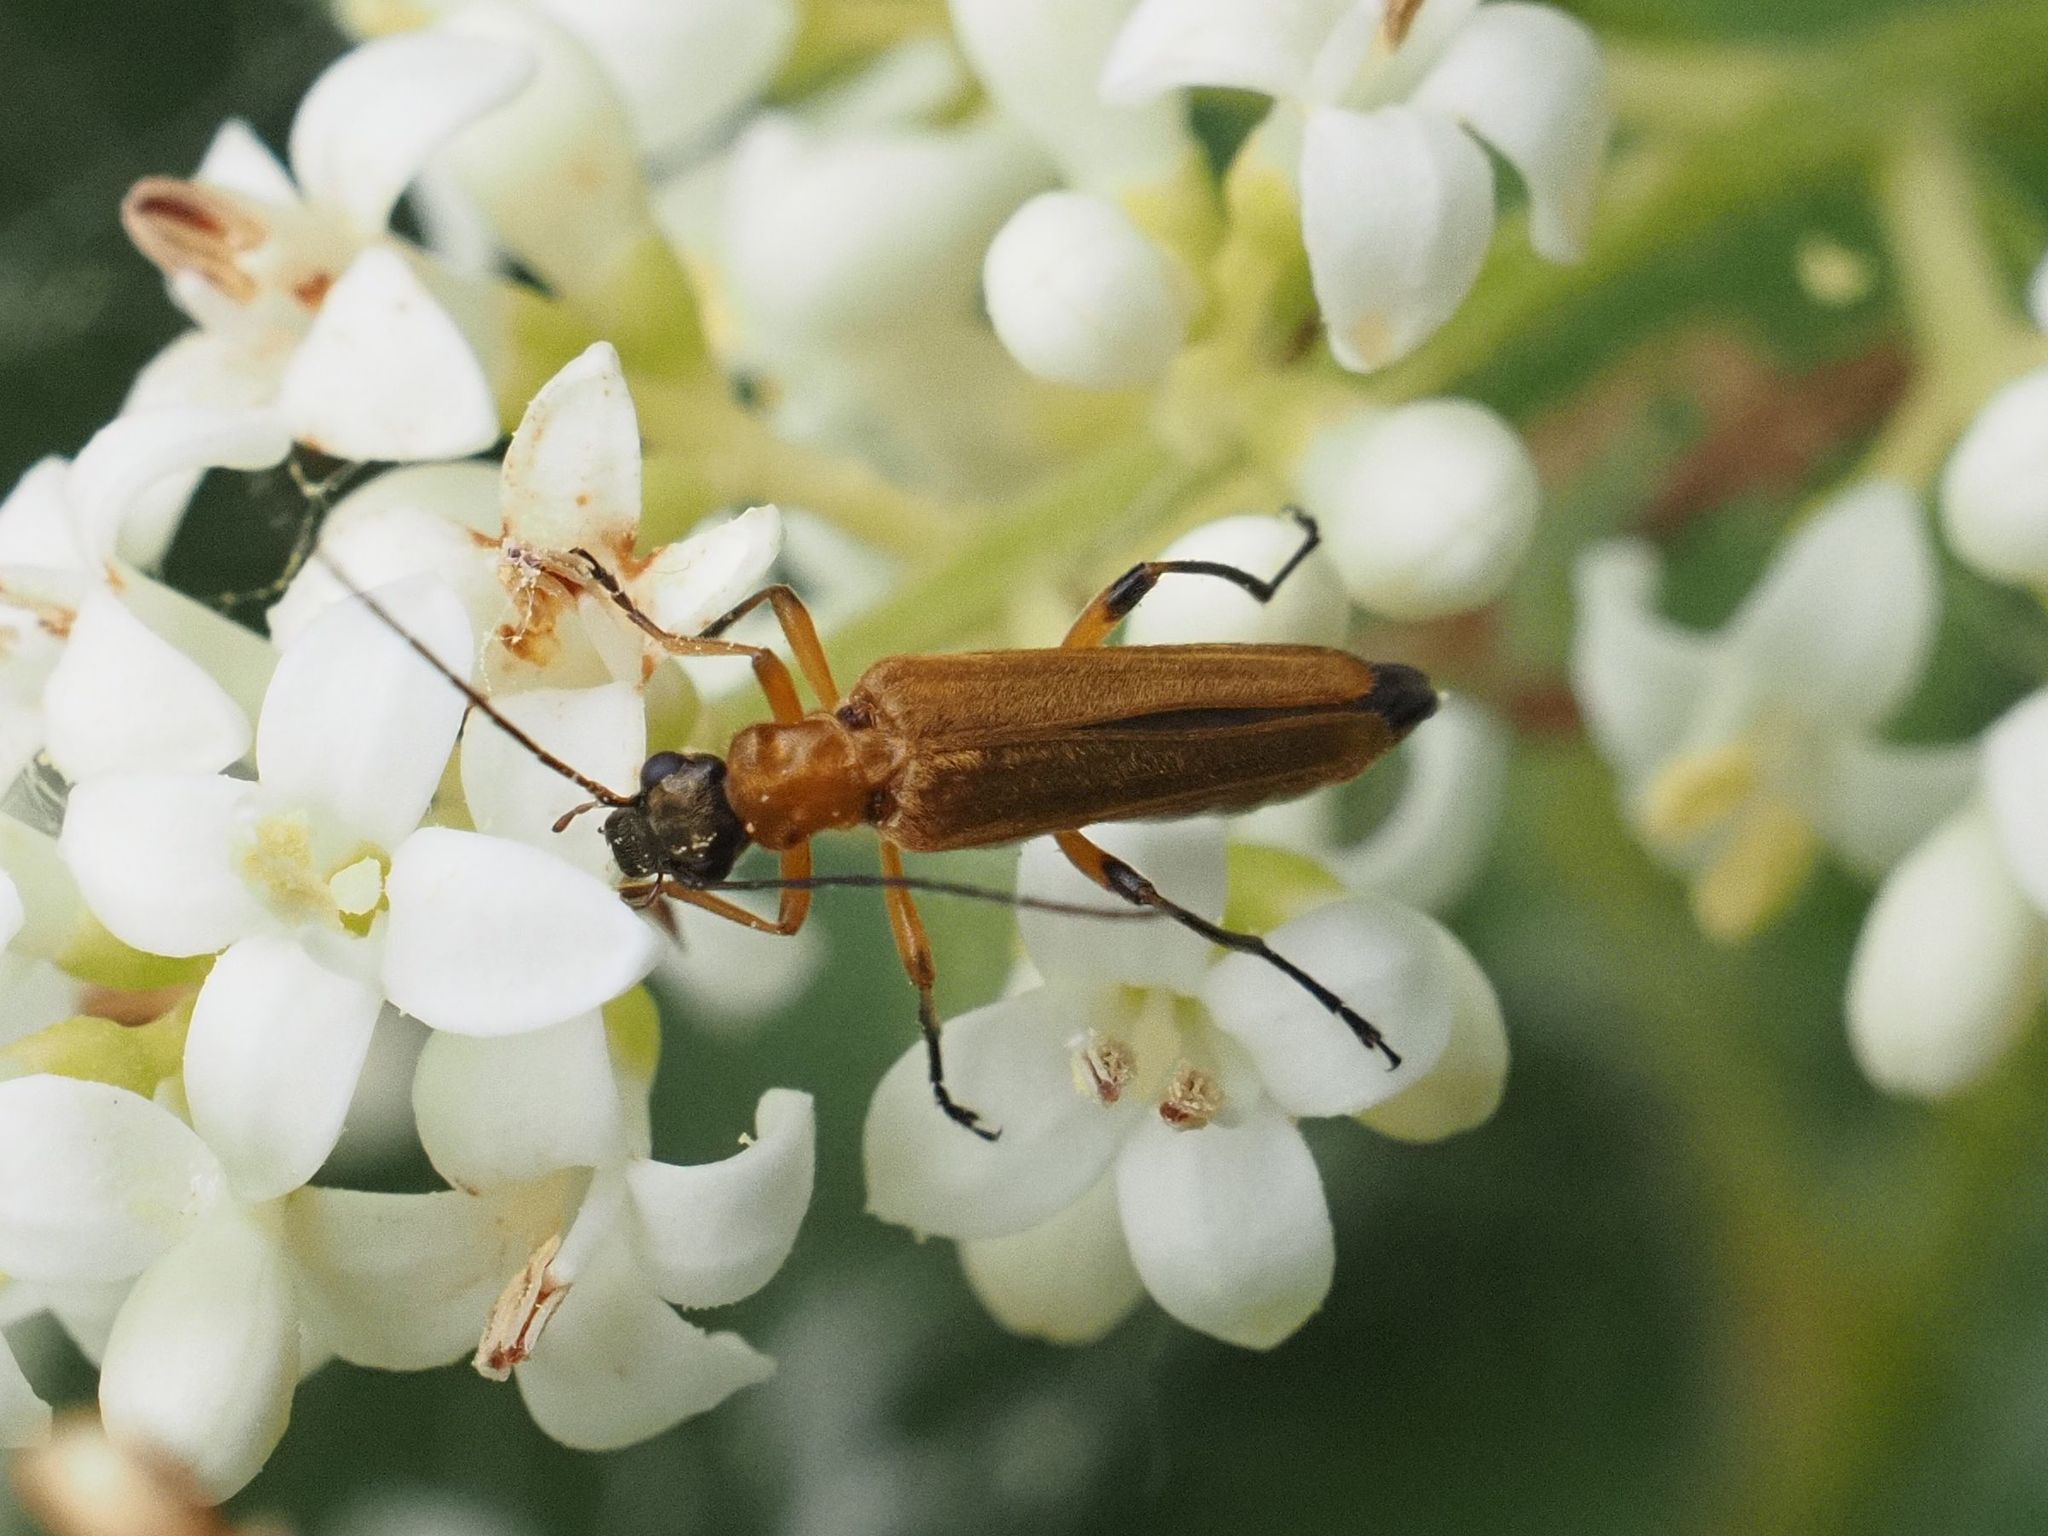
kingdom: Animalia
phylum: Arthropoda
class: Insecta
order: Coleoptera
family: Oedemeridae
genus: Oedemera
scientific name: Oedemera podagrariae
